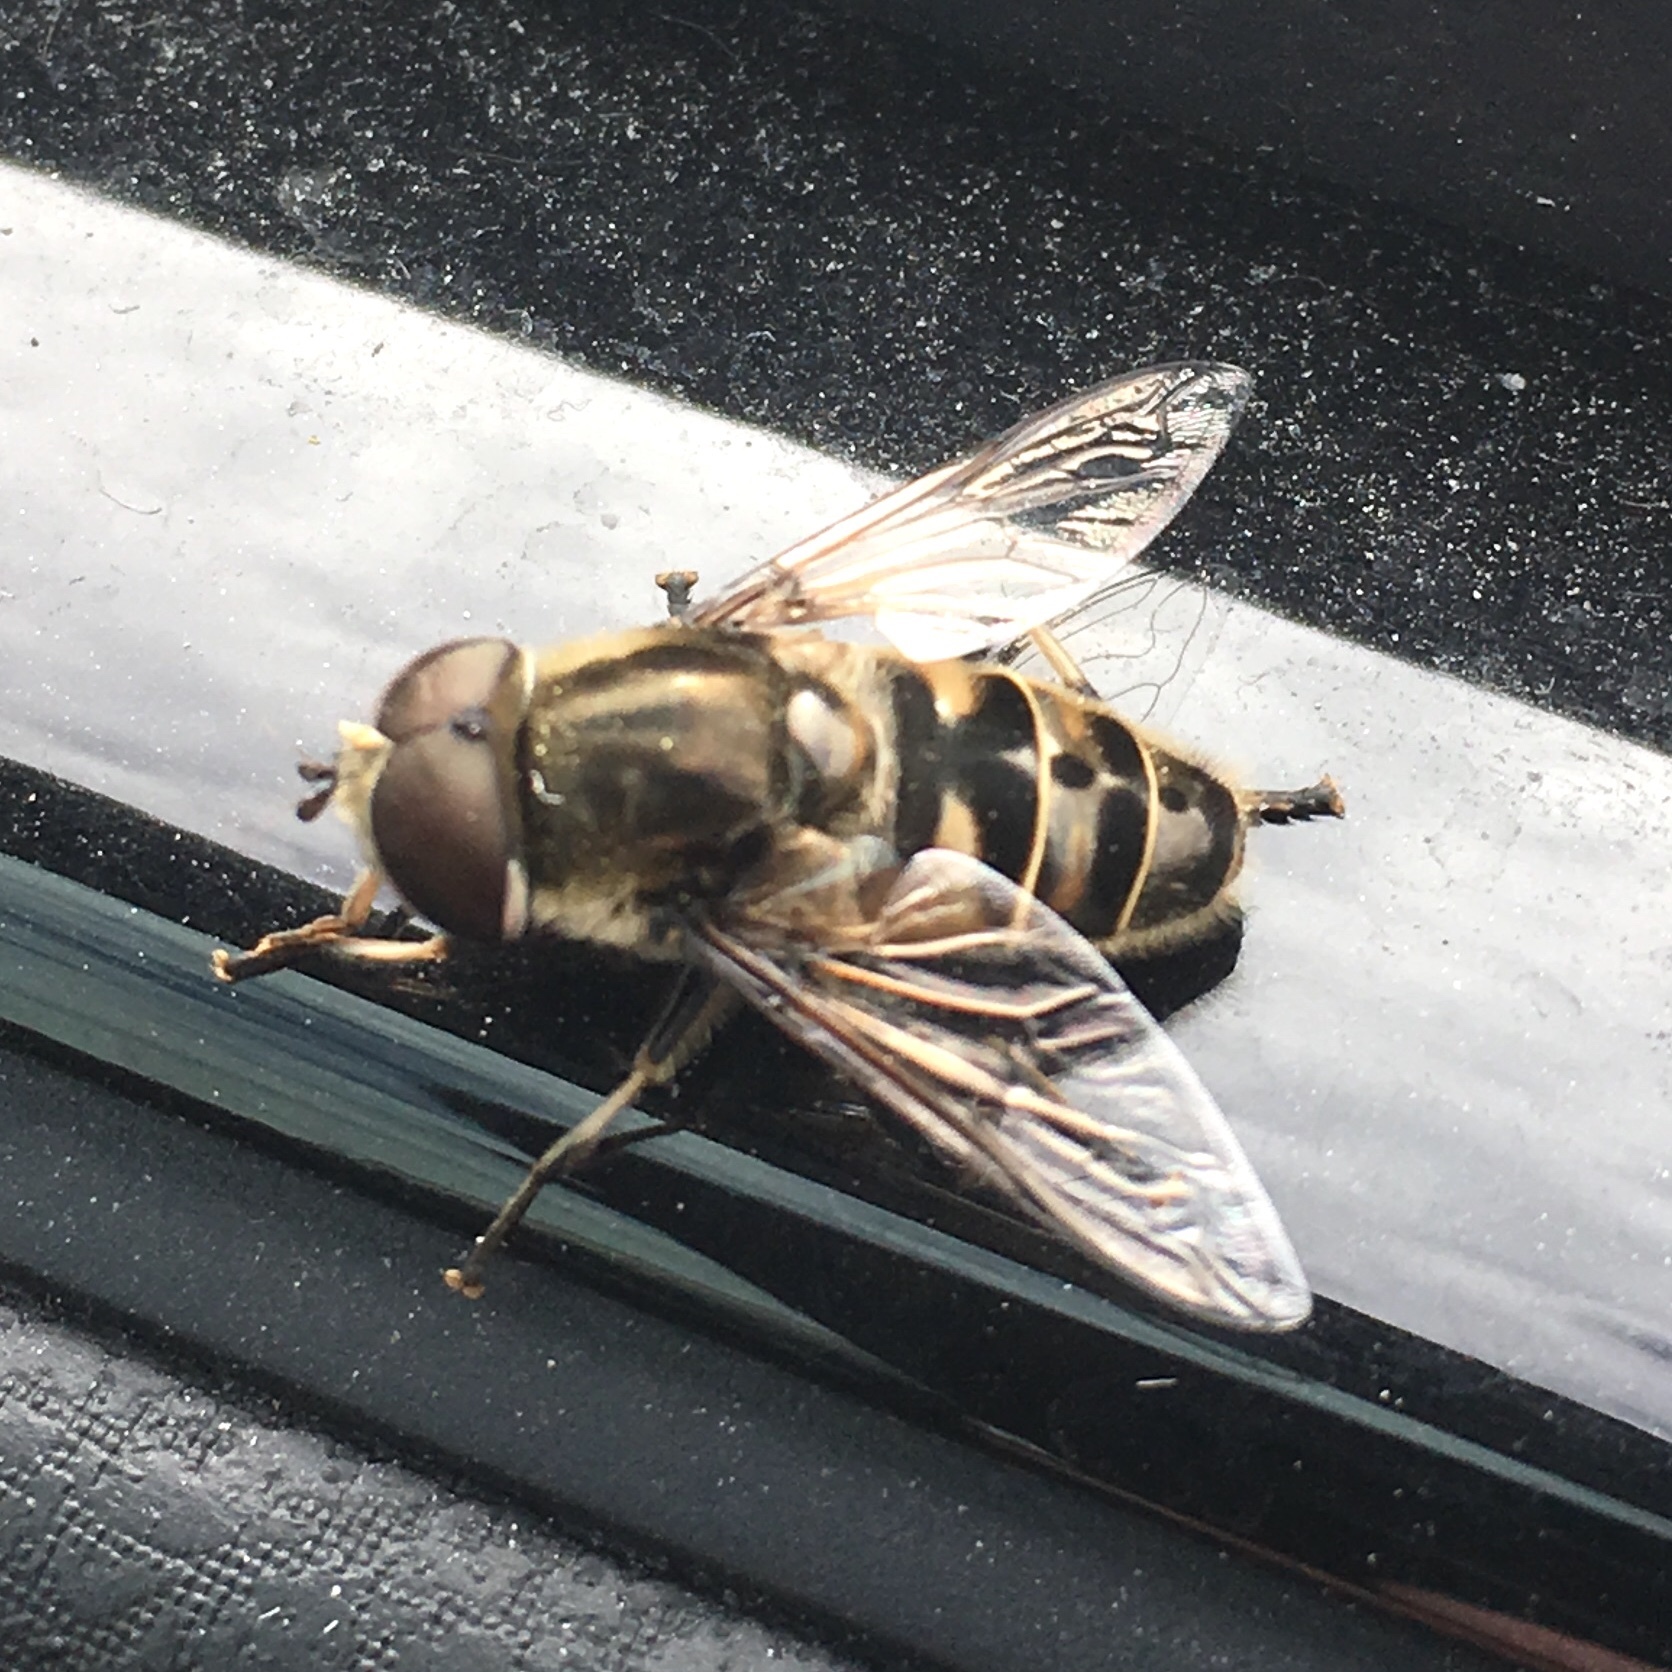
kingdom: Animalia
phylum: Arthropoda
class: Insecta
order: Diptera
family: Syrphidae
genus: Eristalis
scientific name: Eristalis dimidiata
